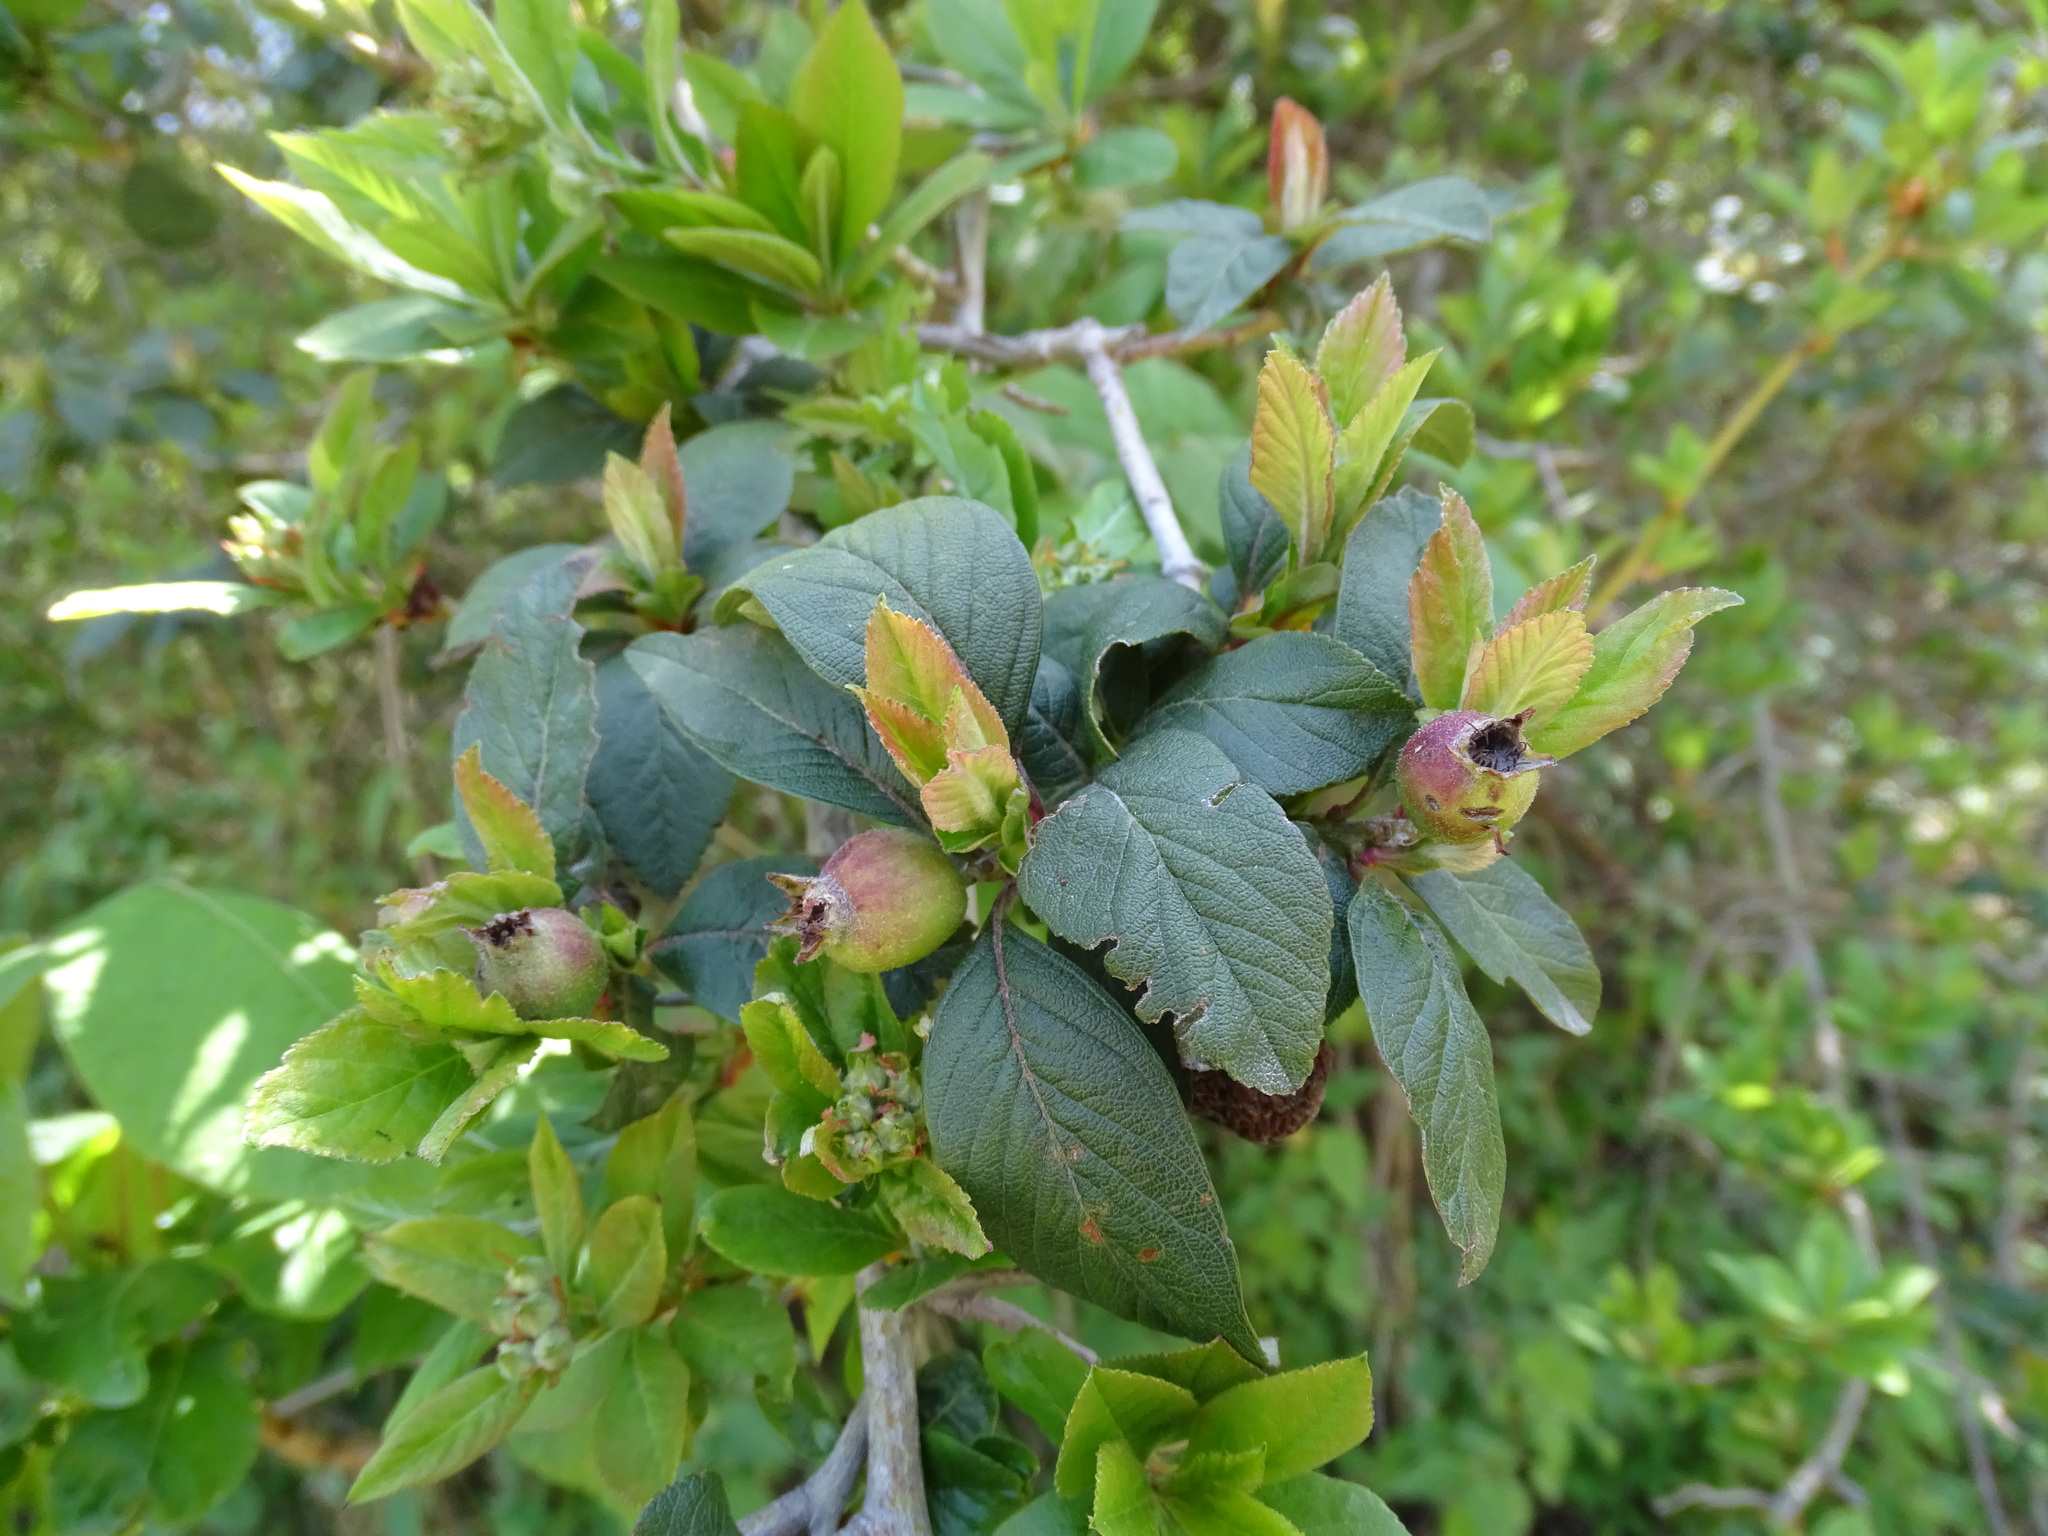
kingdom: Plantae
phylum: Tracheophyta
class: Magnoliopsida
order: Rosales
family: Rosaceae
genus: Crataegus
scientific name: Crataegus mexicana
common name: Mexican hawthorn
